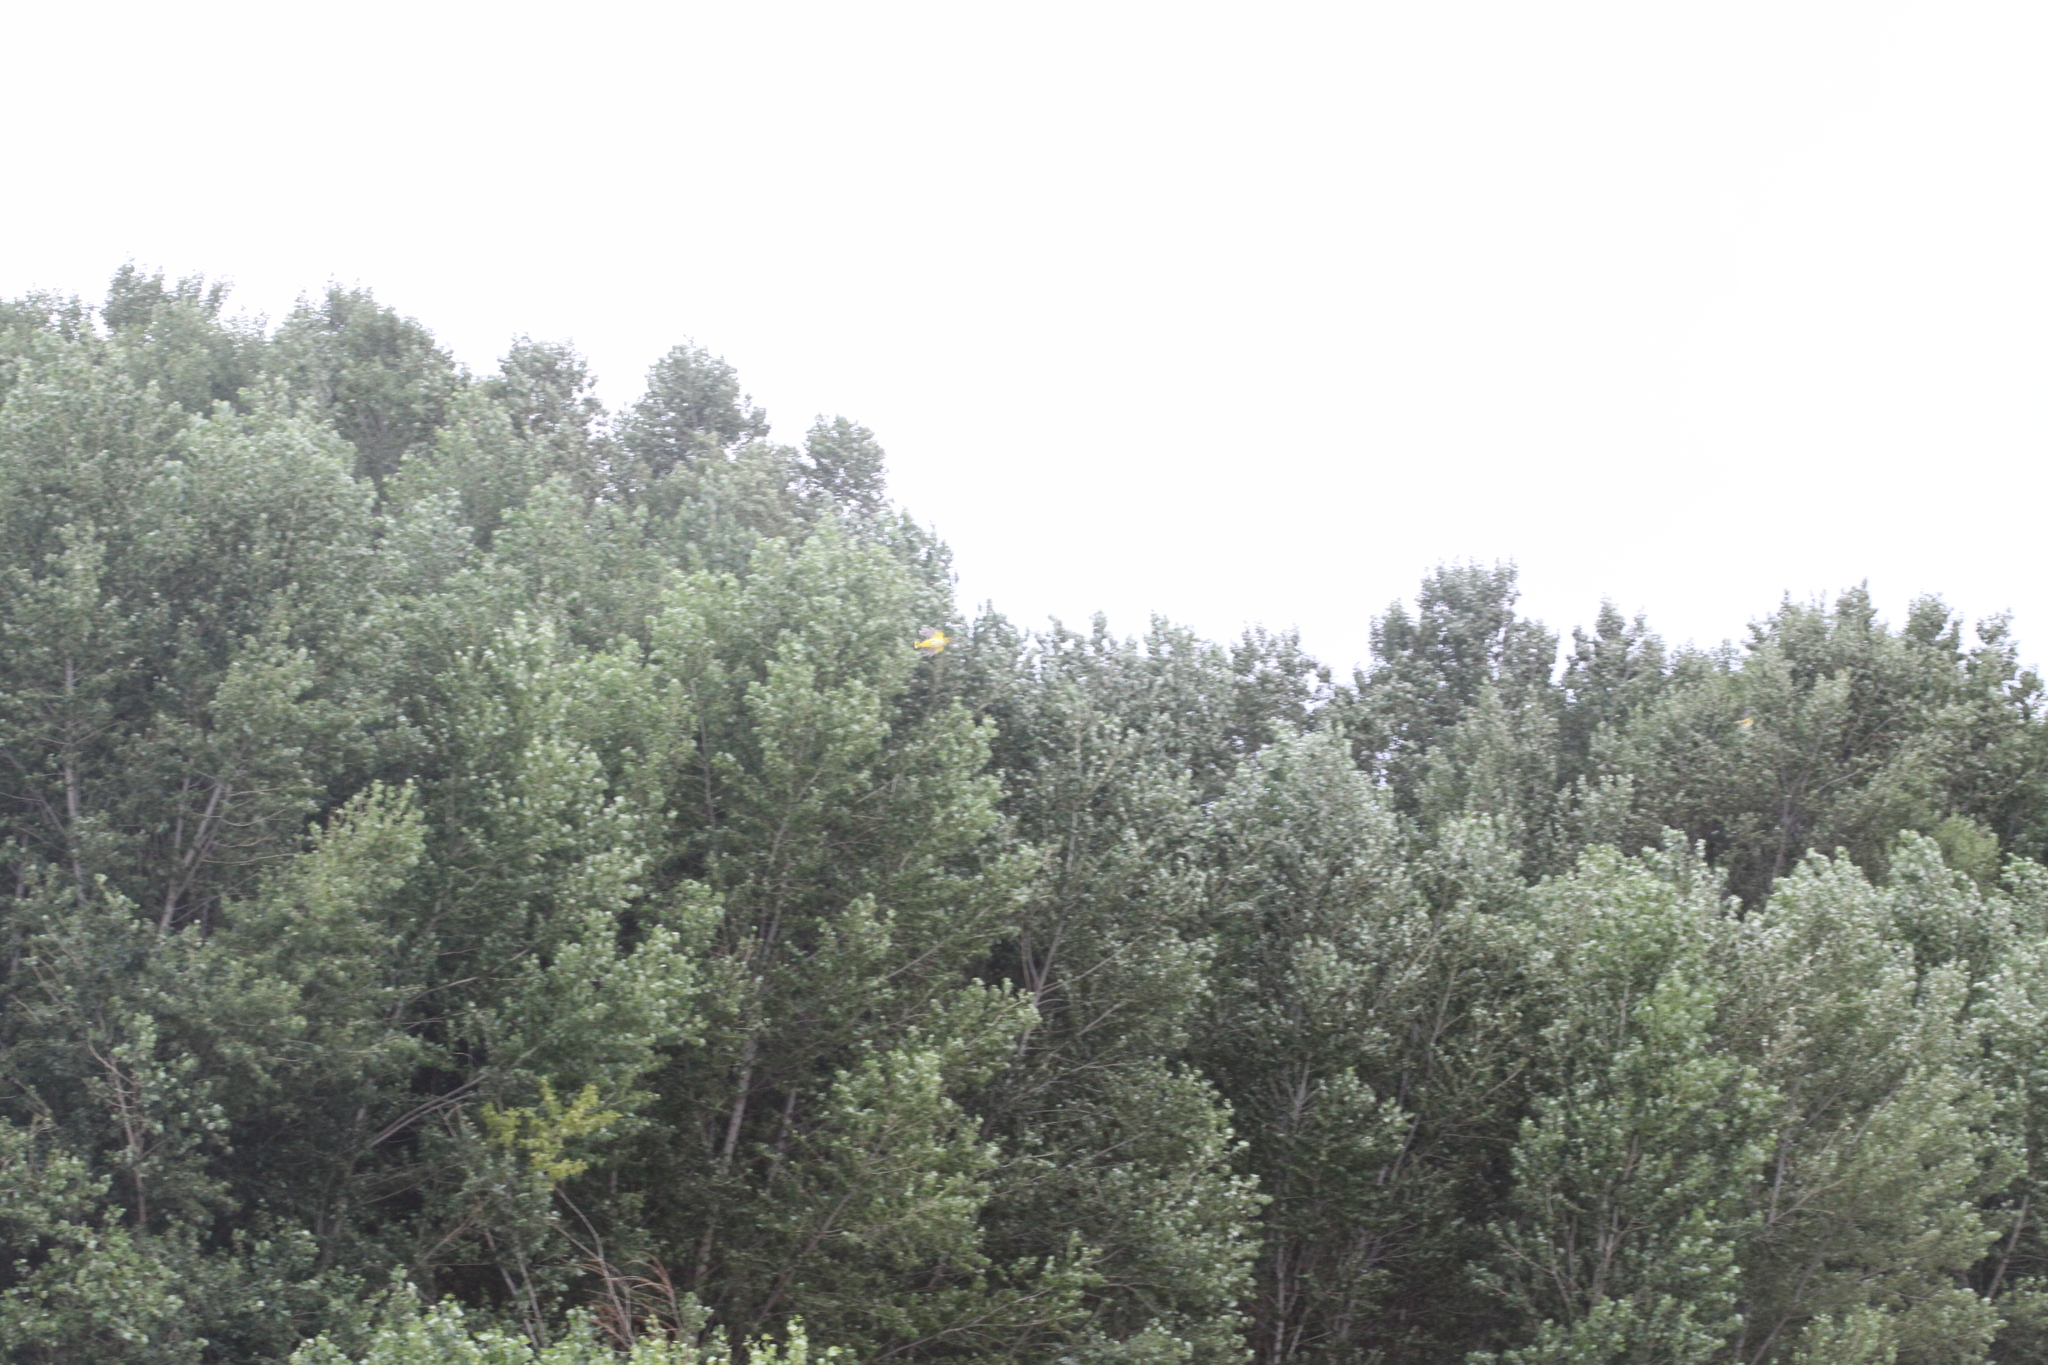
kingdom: Animalia
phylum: Chordata
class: Aves
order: Passeriformes
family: Oriolidae
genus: Oriolus
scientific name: Oriolus oriolus
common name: Eurasian golden oriole
